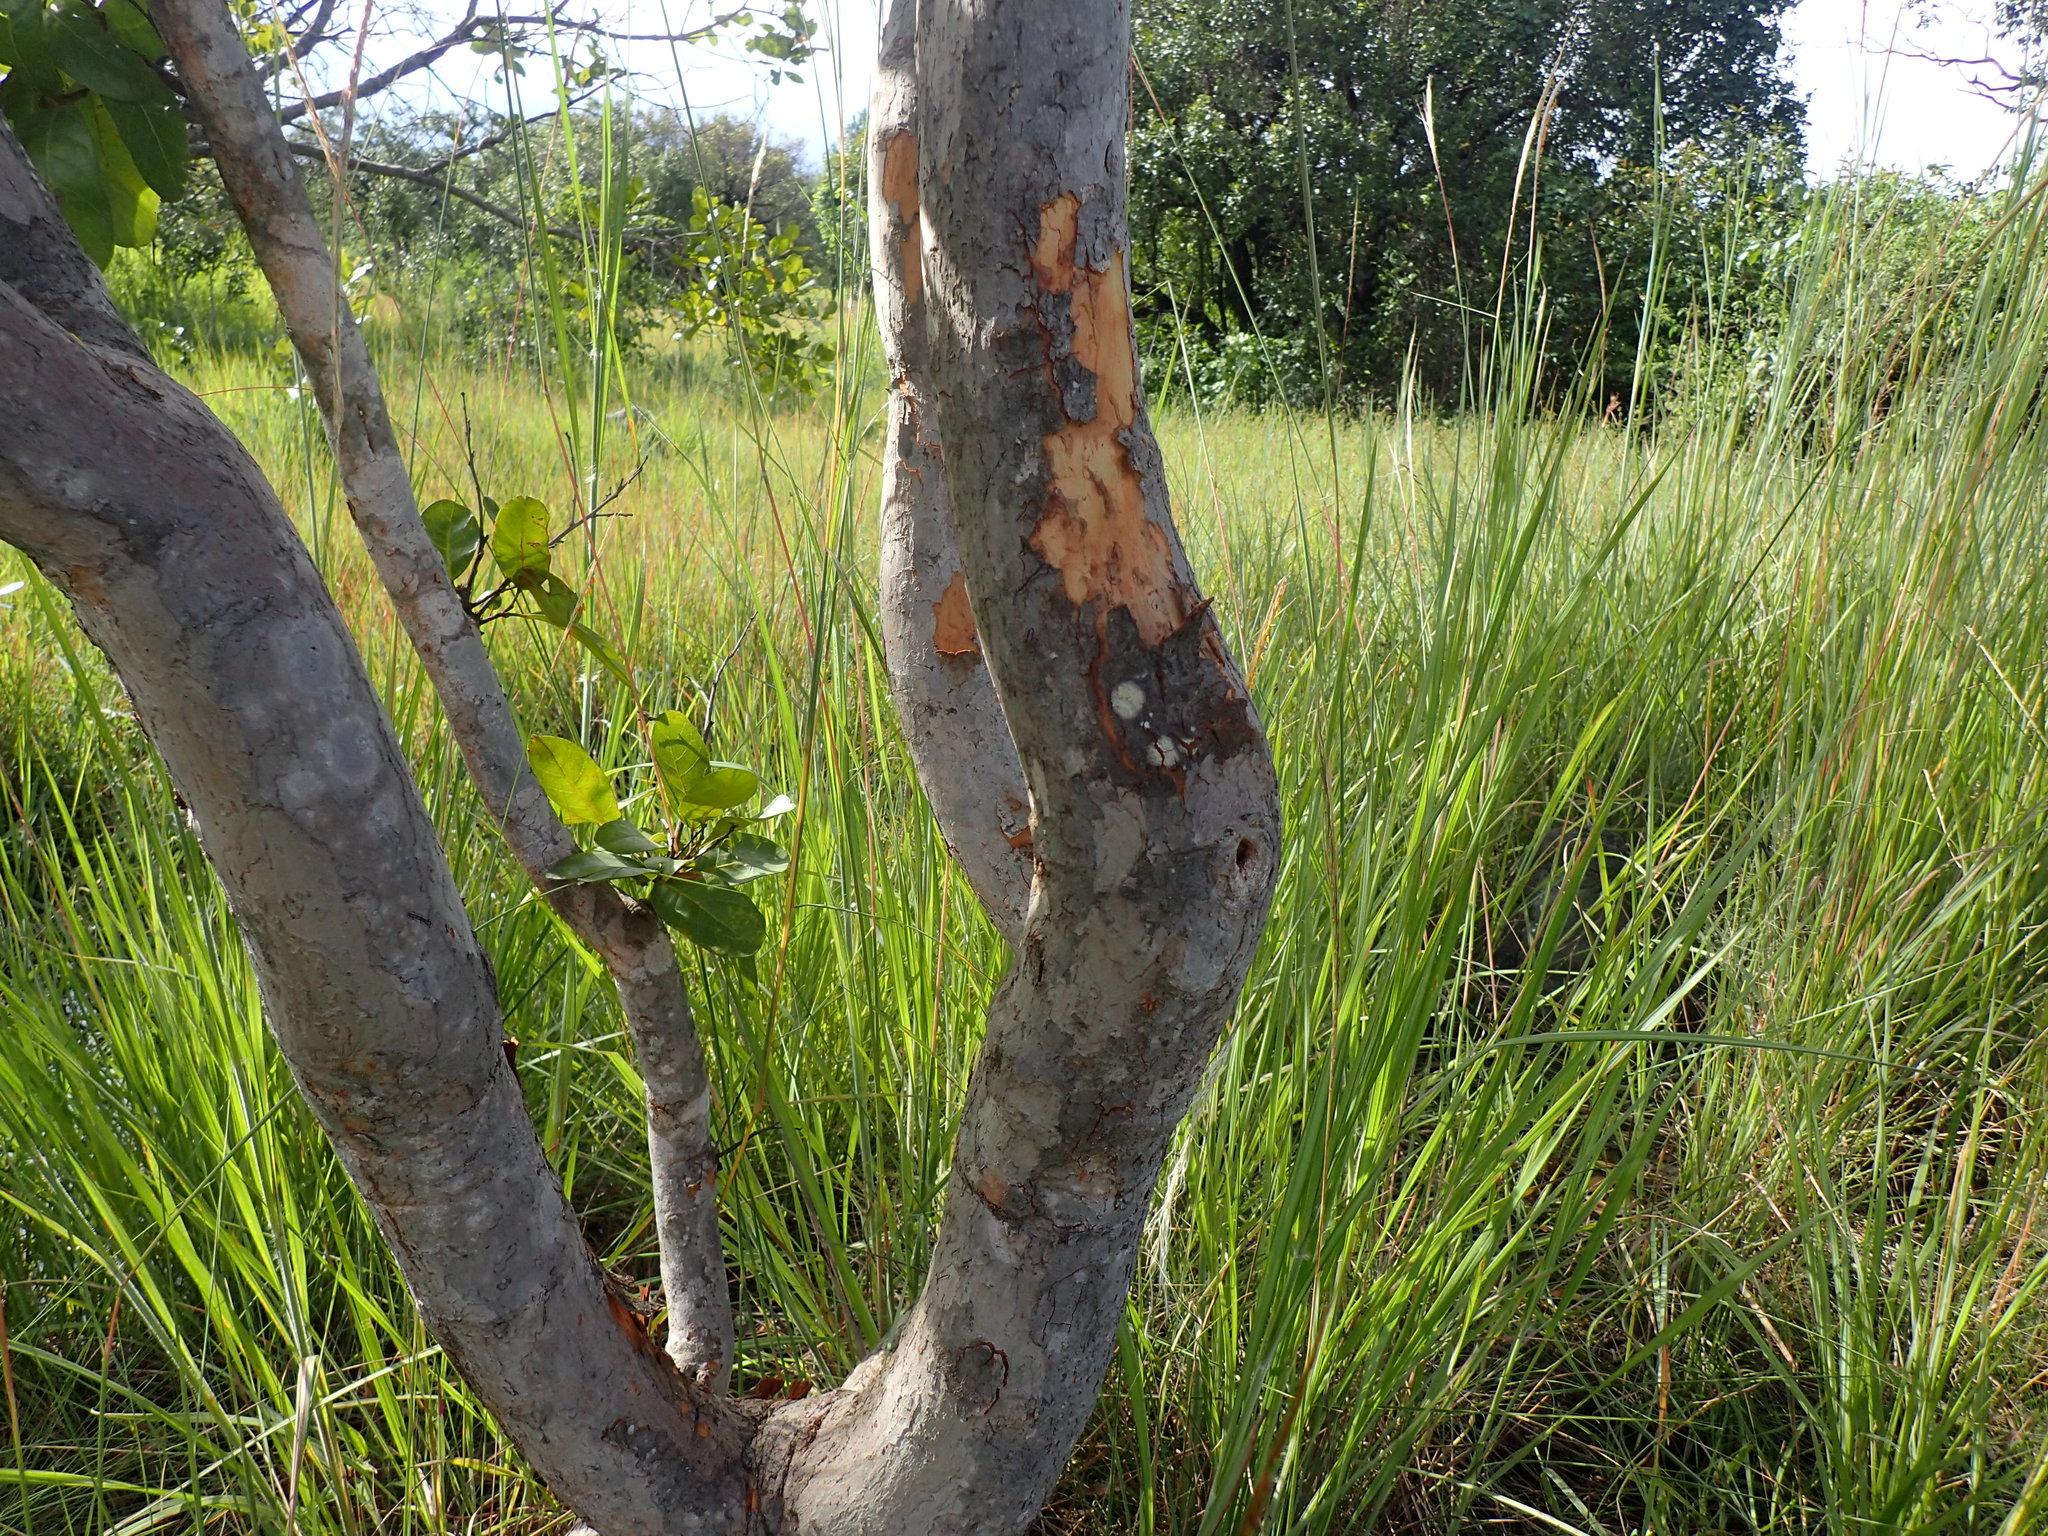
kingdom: Plantae
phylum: Tracheophyta
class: Magnoliopsida
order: Malpighiales
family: Phyllanthaceae
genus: Hymenocardia
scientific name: Hymenocardia acida
